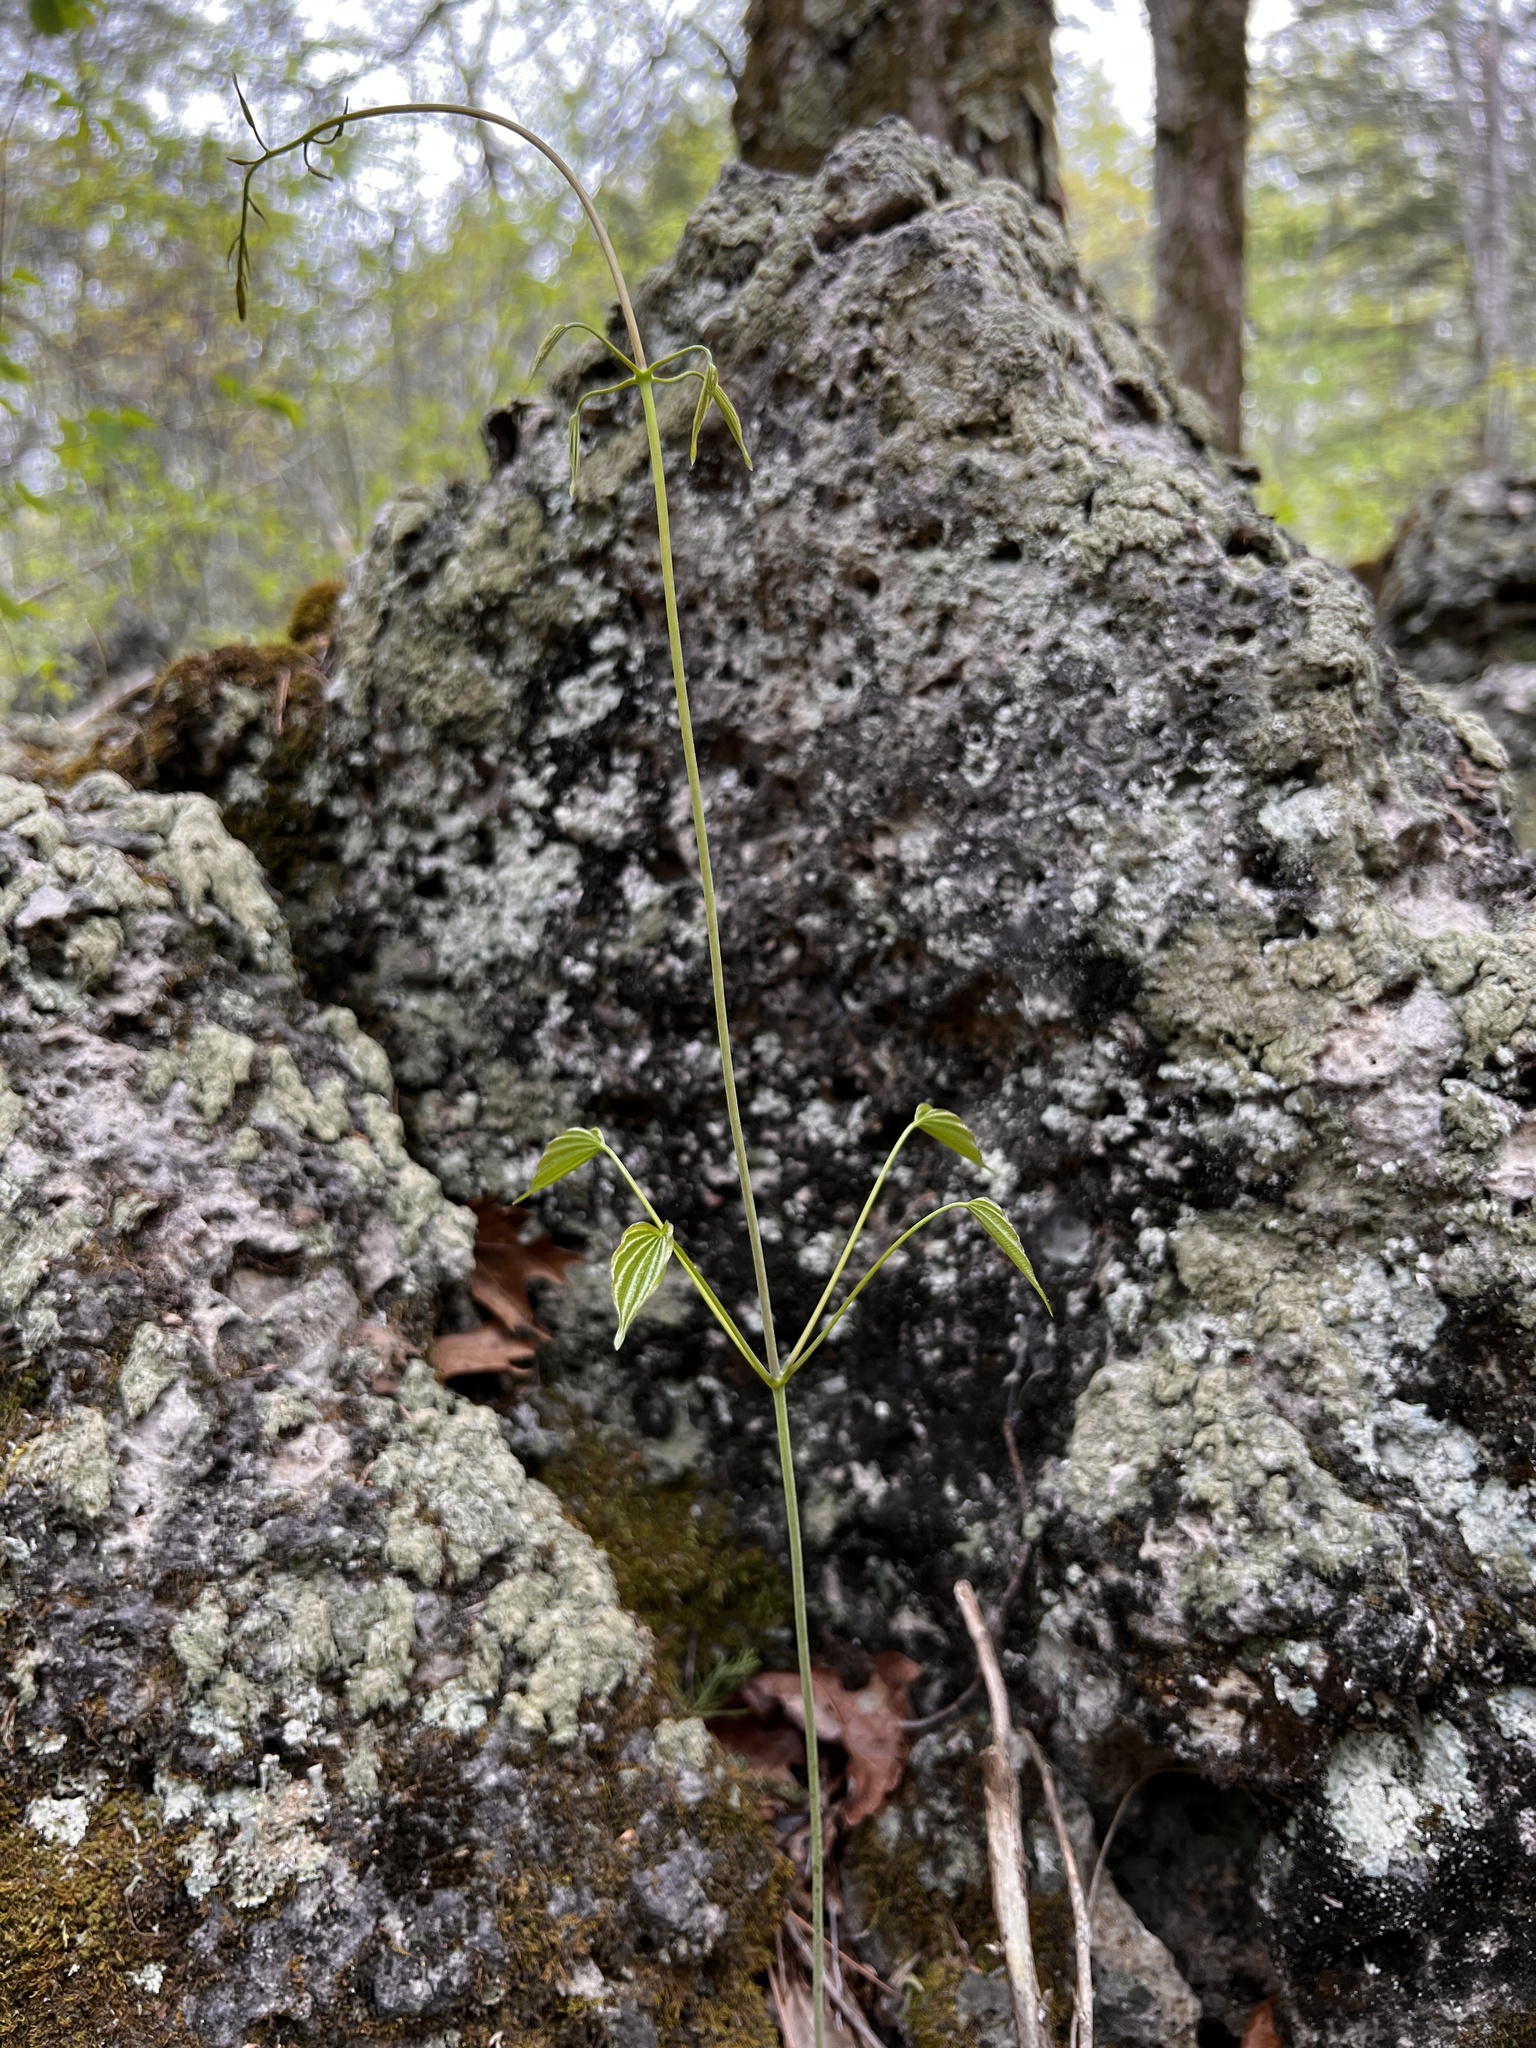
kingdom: Plantae
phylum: Tracheophyta
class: Liliopsida
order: Dioscoreales
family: Dioscoreaceae
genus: Dioscorea
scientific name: Dioscorea villosa
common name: Wild yam
